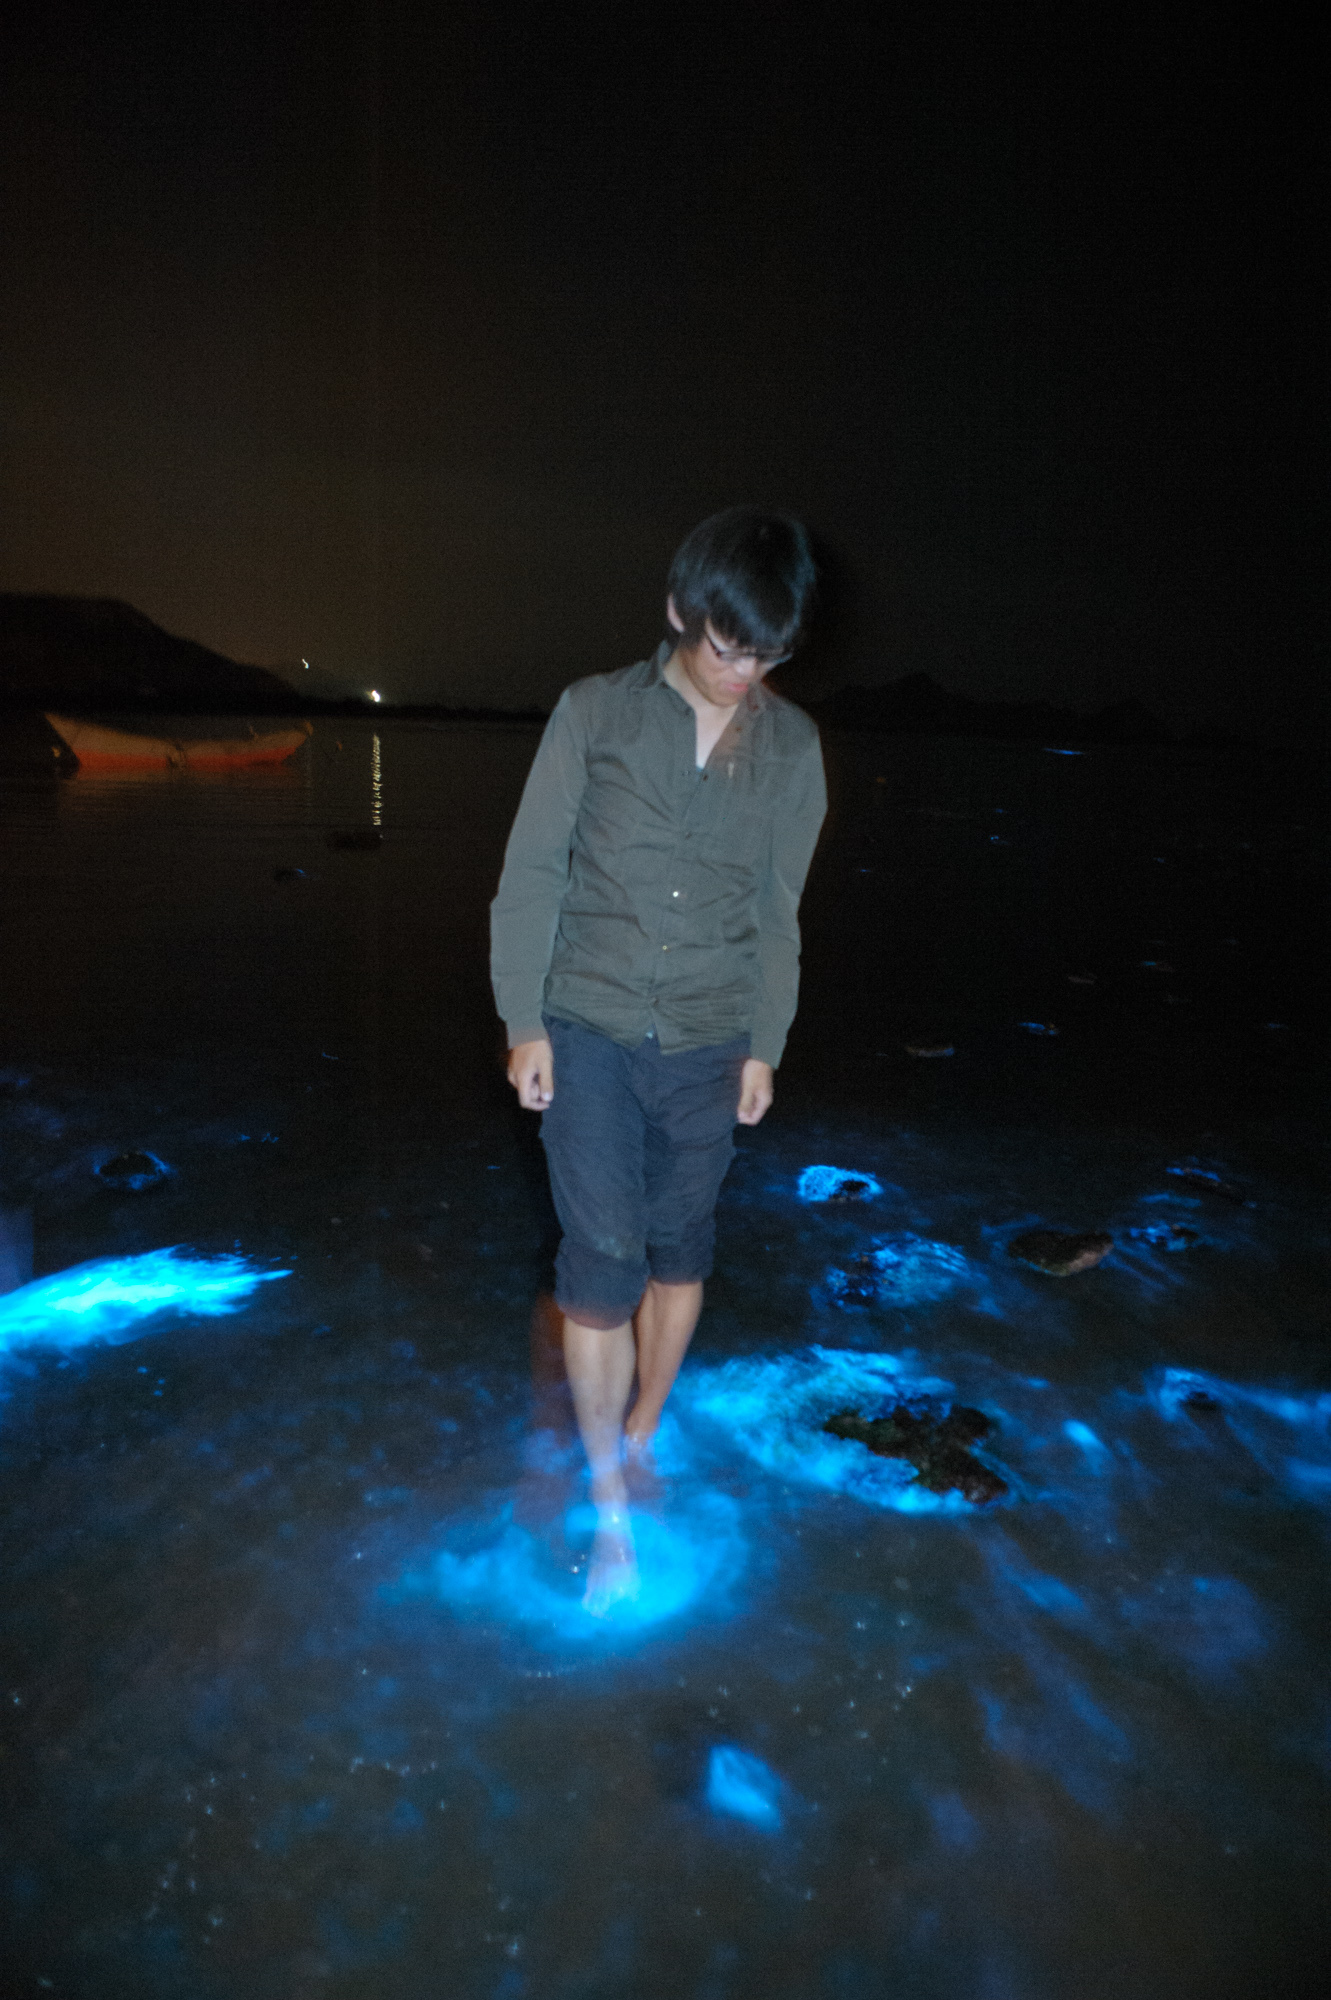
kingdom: Chromista
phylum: Myzozoa
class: Dinophyceae
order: Noctilucales
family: Noctilucaceae
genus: Noctiluca
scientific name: Noctiluca scintillans
